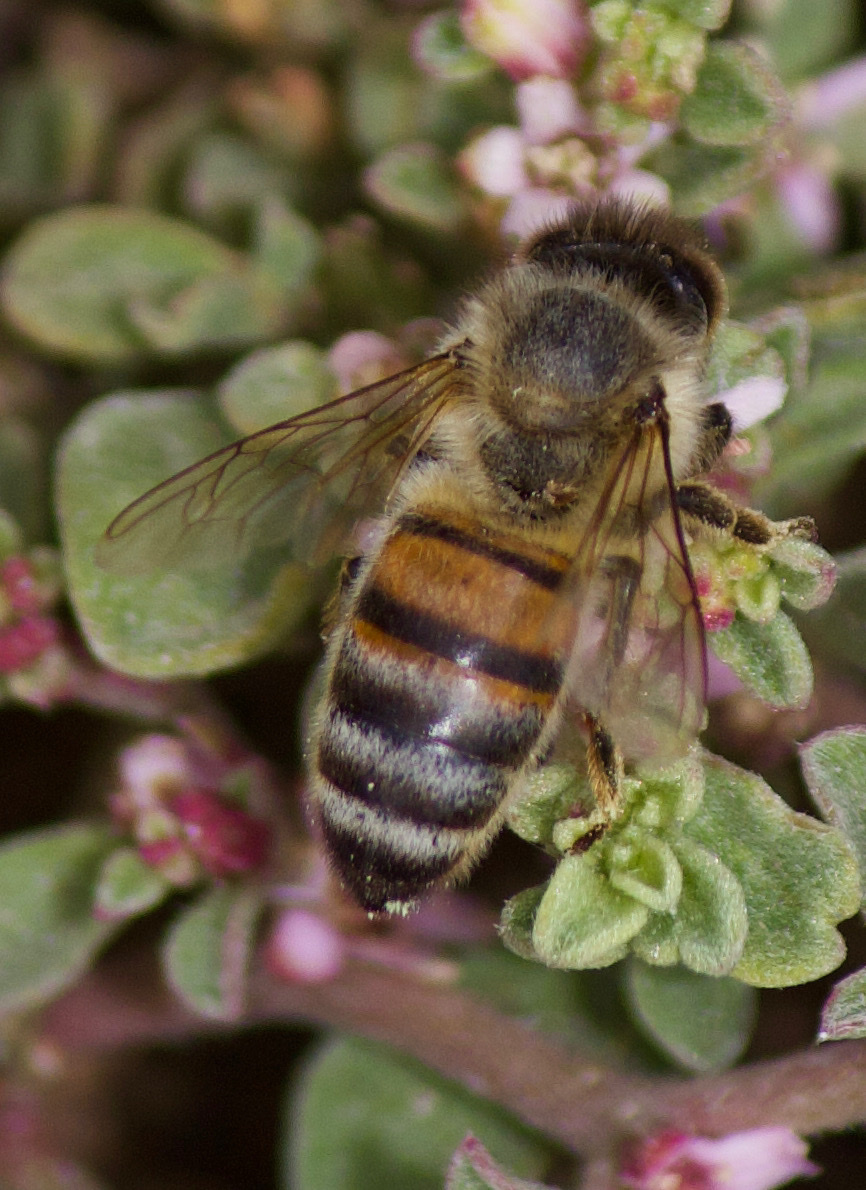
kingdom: Animalia
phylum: Arthropoda
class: Insecta
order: Hymenoptera
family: Apidae
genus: Apis
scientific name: Apis mellifera
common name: Honey bee
